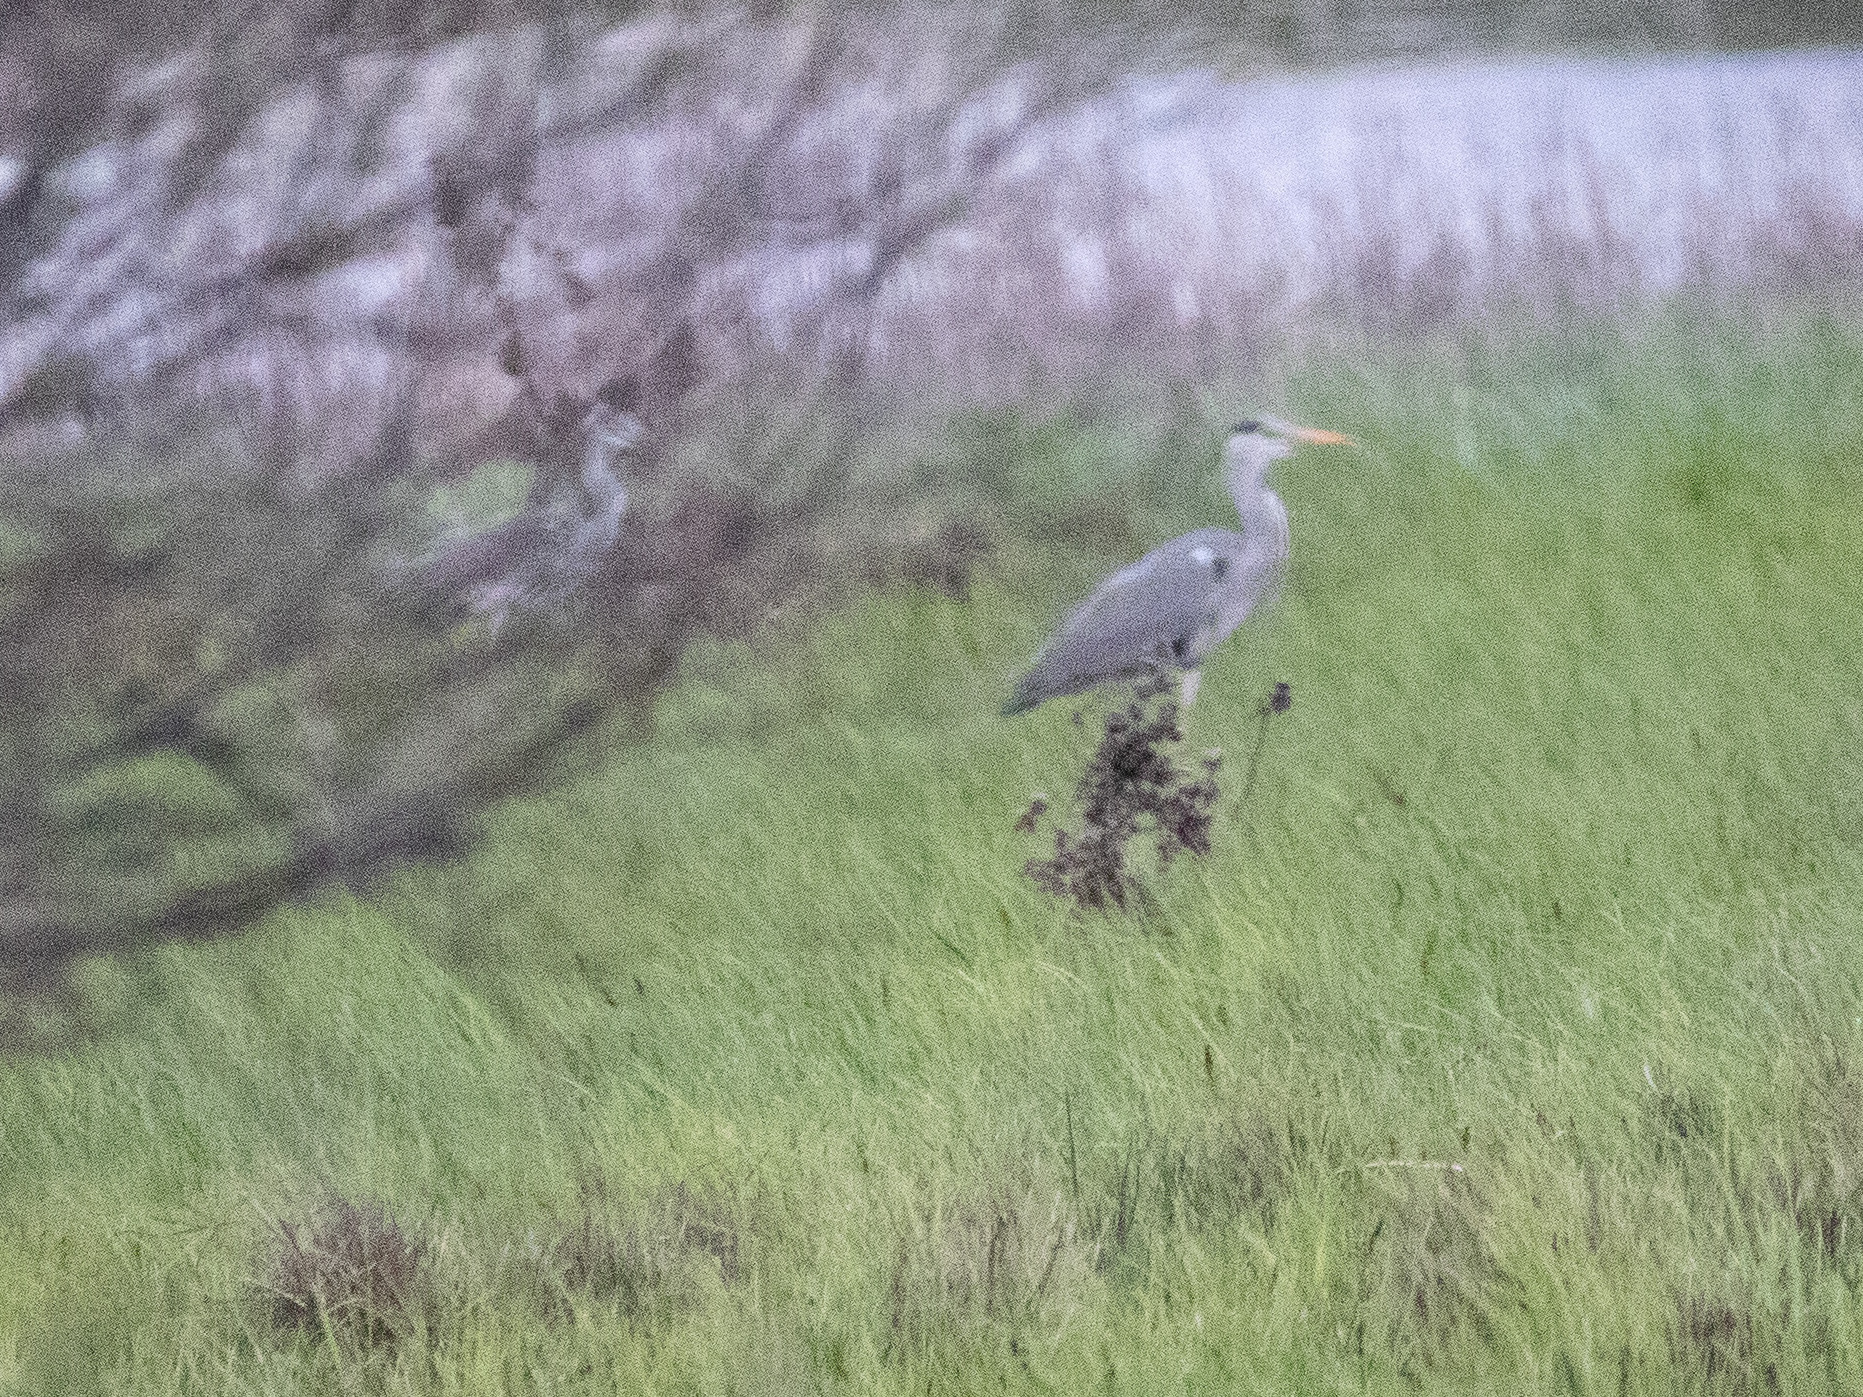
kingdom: Animalia
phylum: Chordata
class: Aves
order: Pelecaniformes
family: Ardeidae
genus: Ardea
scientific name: Ardea cinerea
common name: Grey heron
